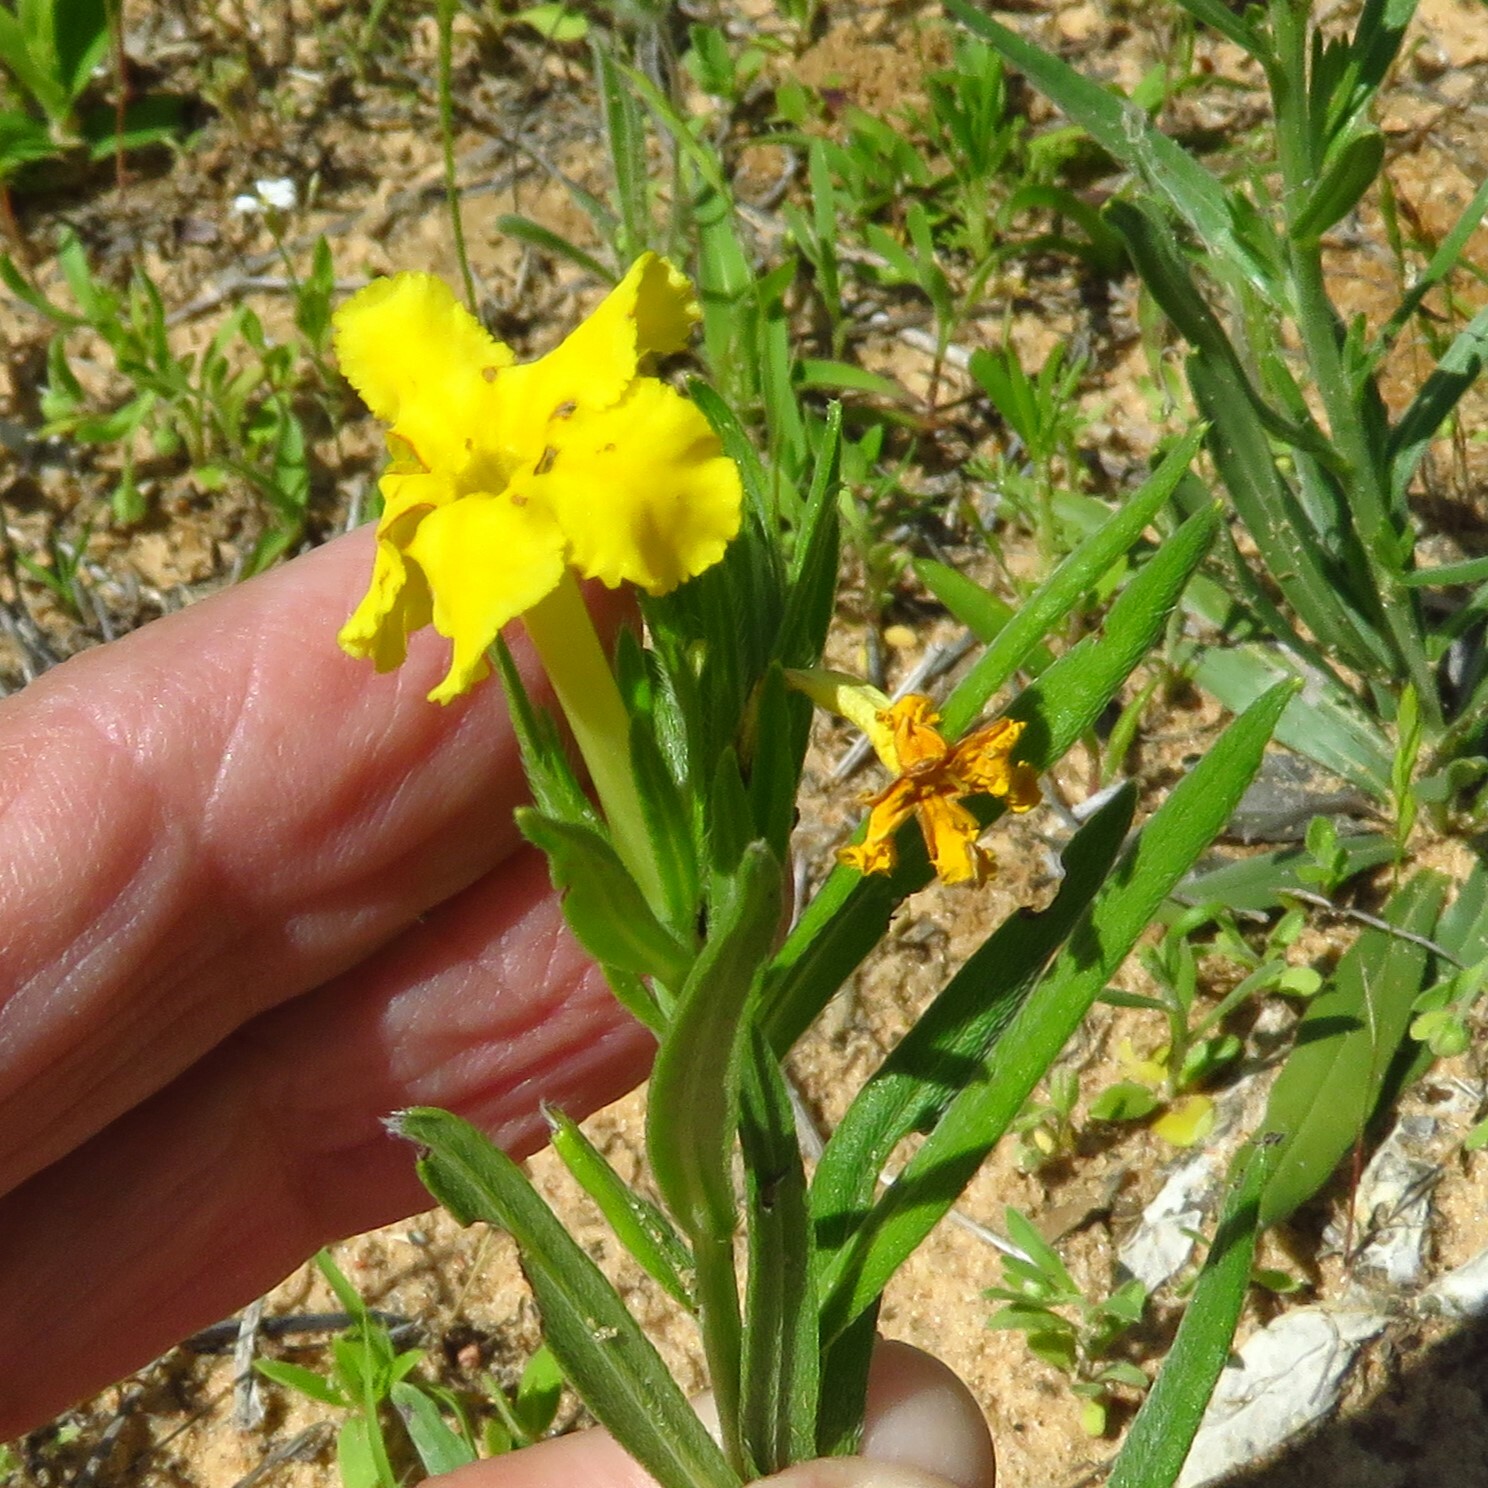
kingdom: Plantae
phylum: Tracheophyta
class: Magnoliopsida
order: Boraginales
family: Boraginaceae
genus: Lithospermum
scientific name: Lithospermum incisum
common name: Fringed gromwell
